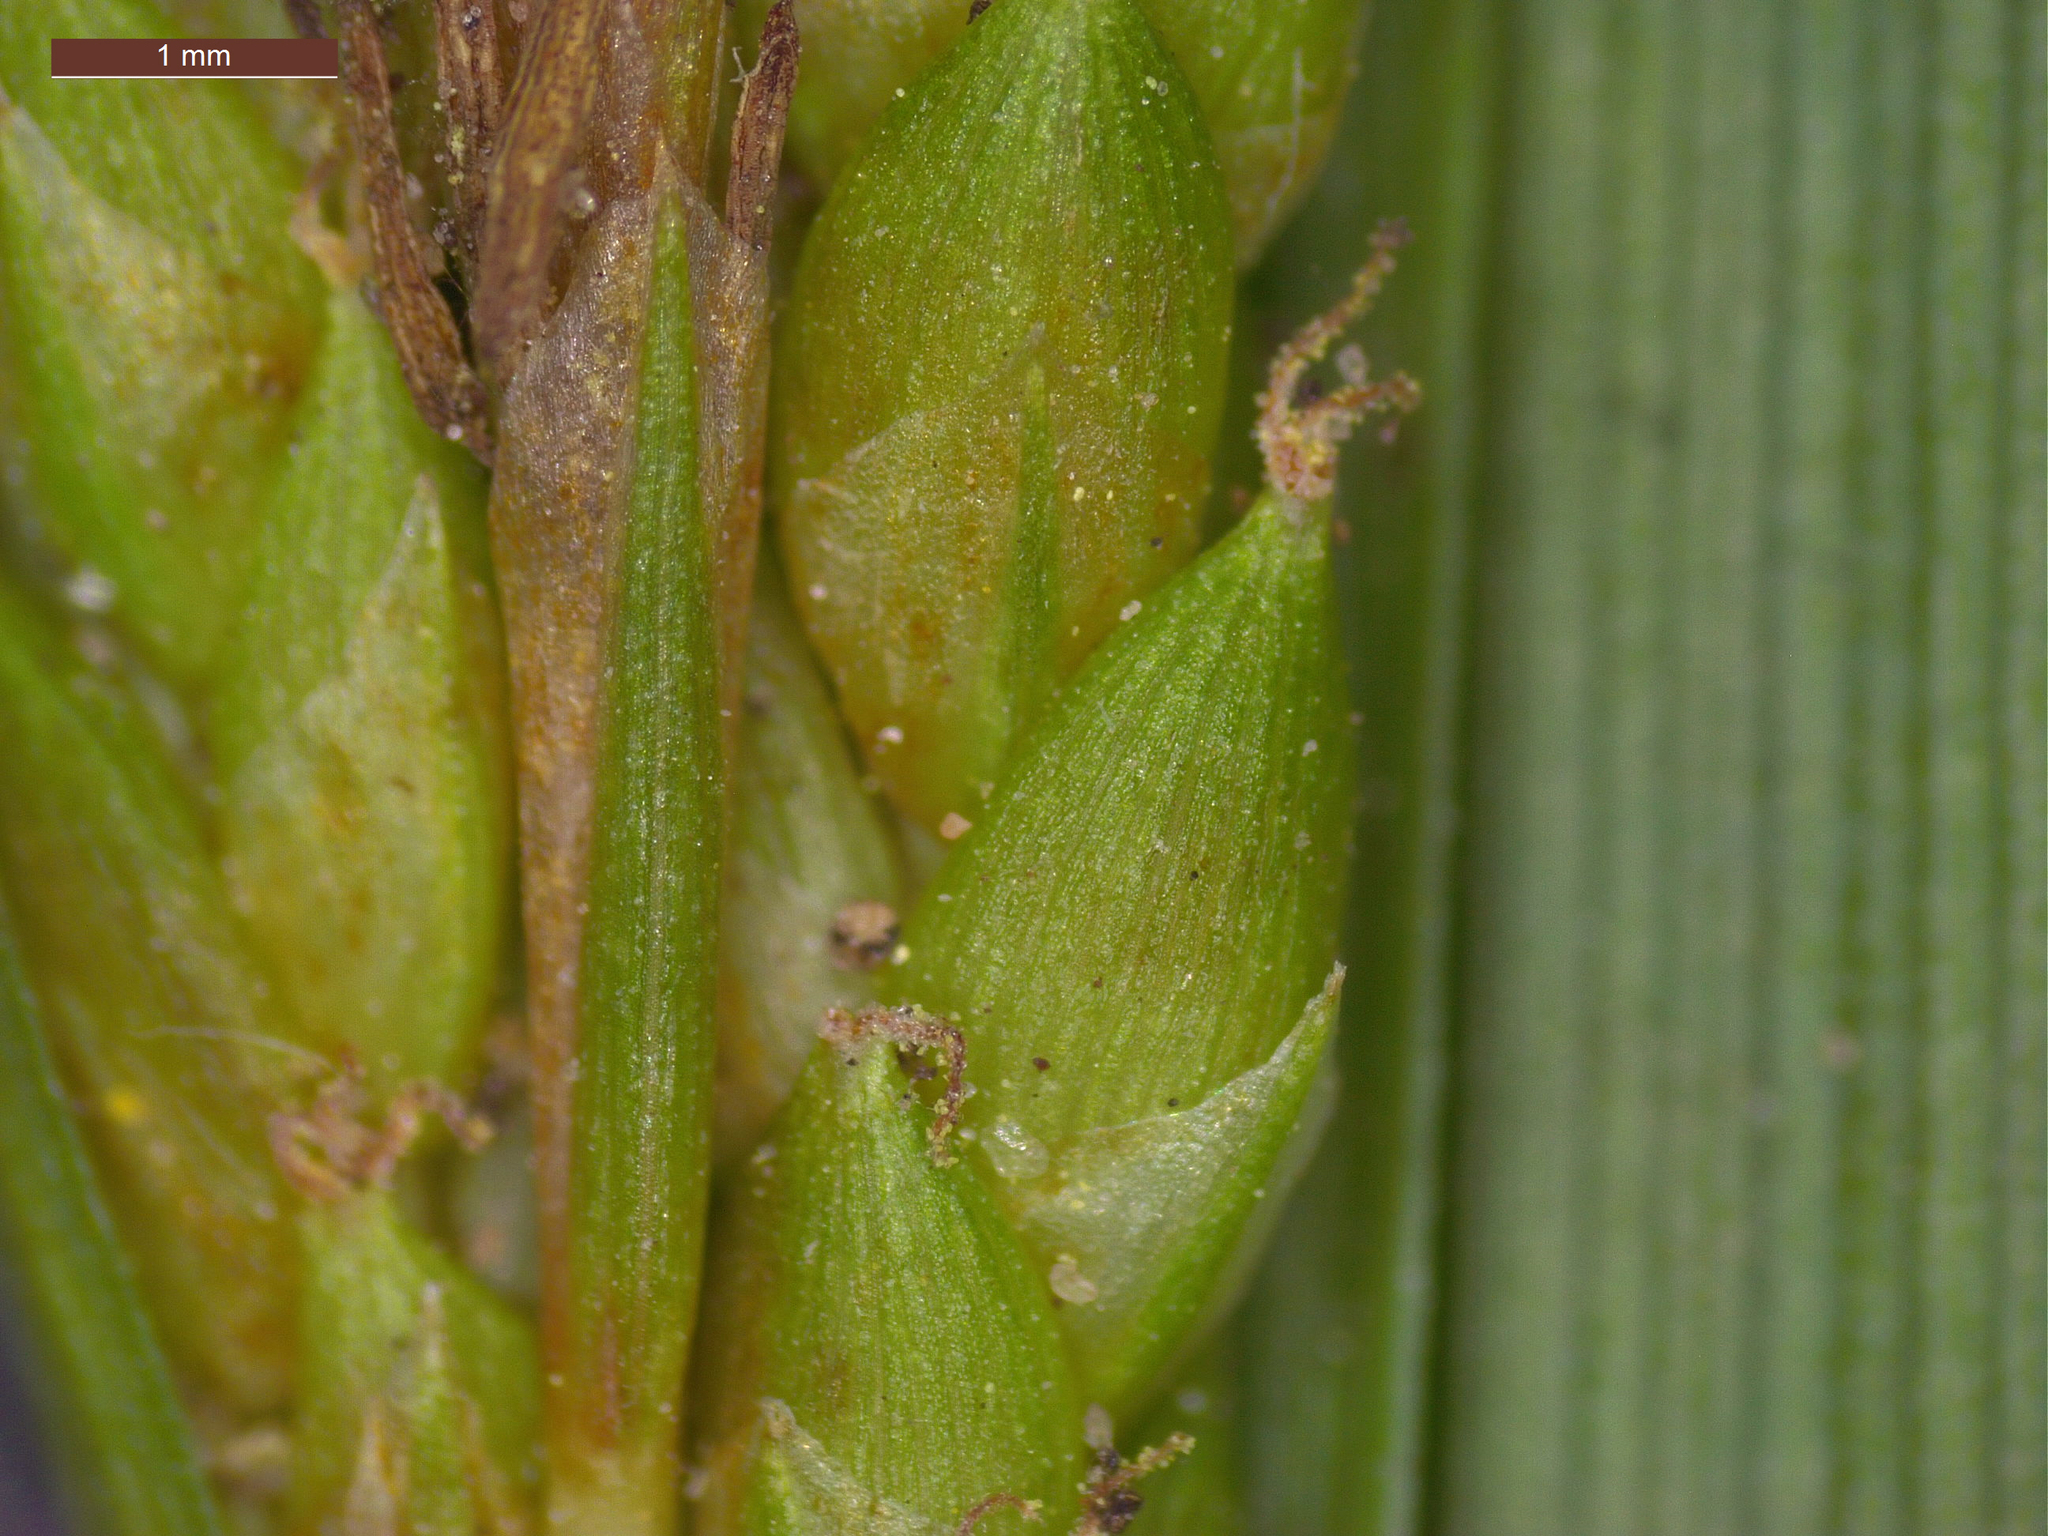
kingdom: Plantae
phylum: Tracheophyta
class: Liliopsida
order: Poales
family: Cyperaceae
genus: Carex
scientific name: Carex flaccosperma
